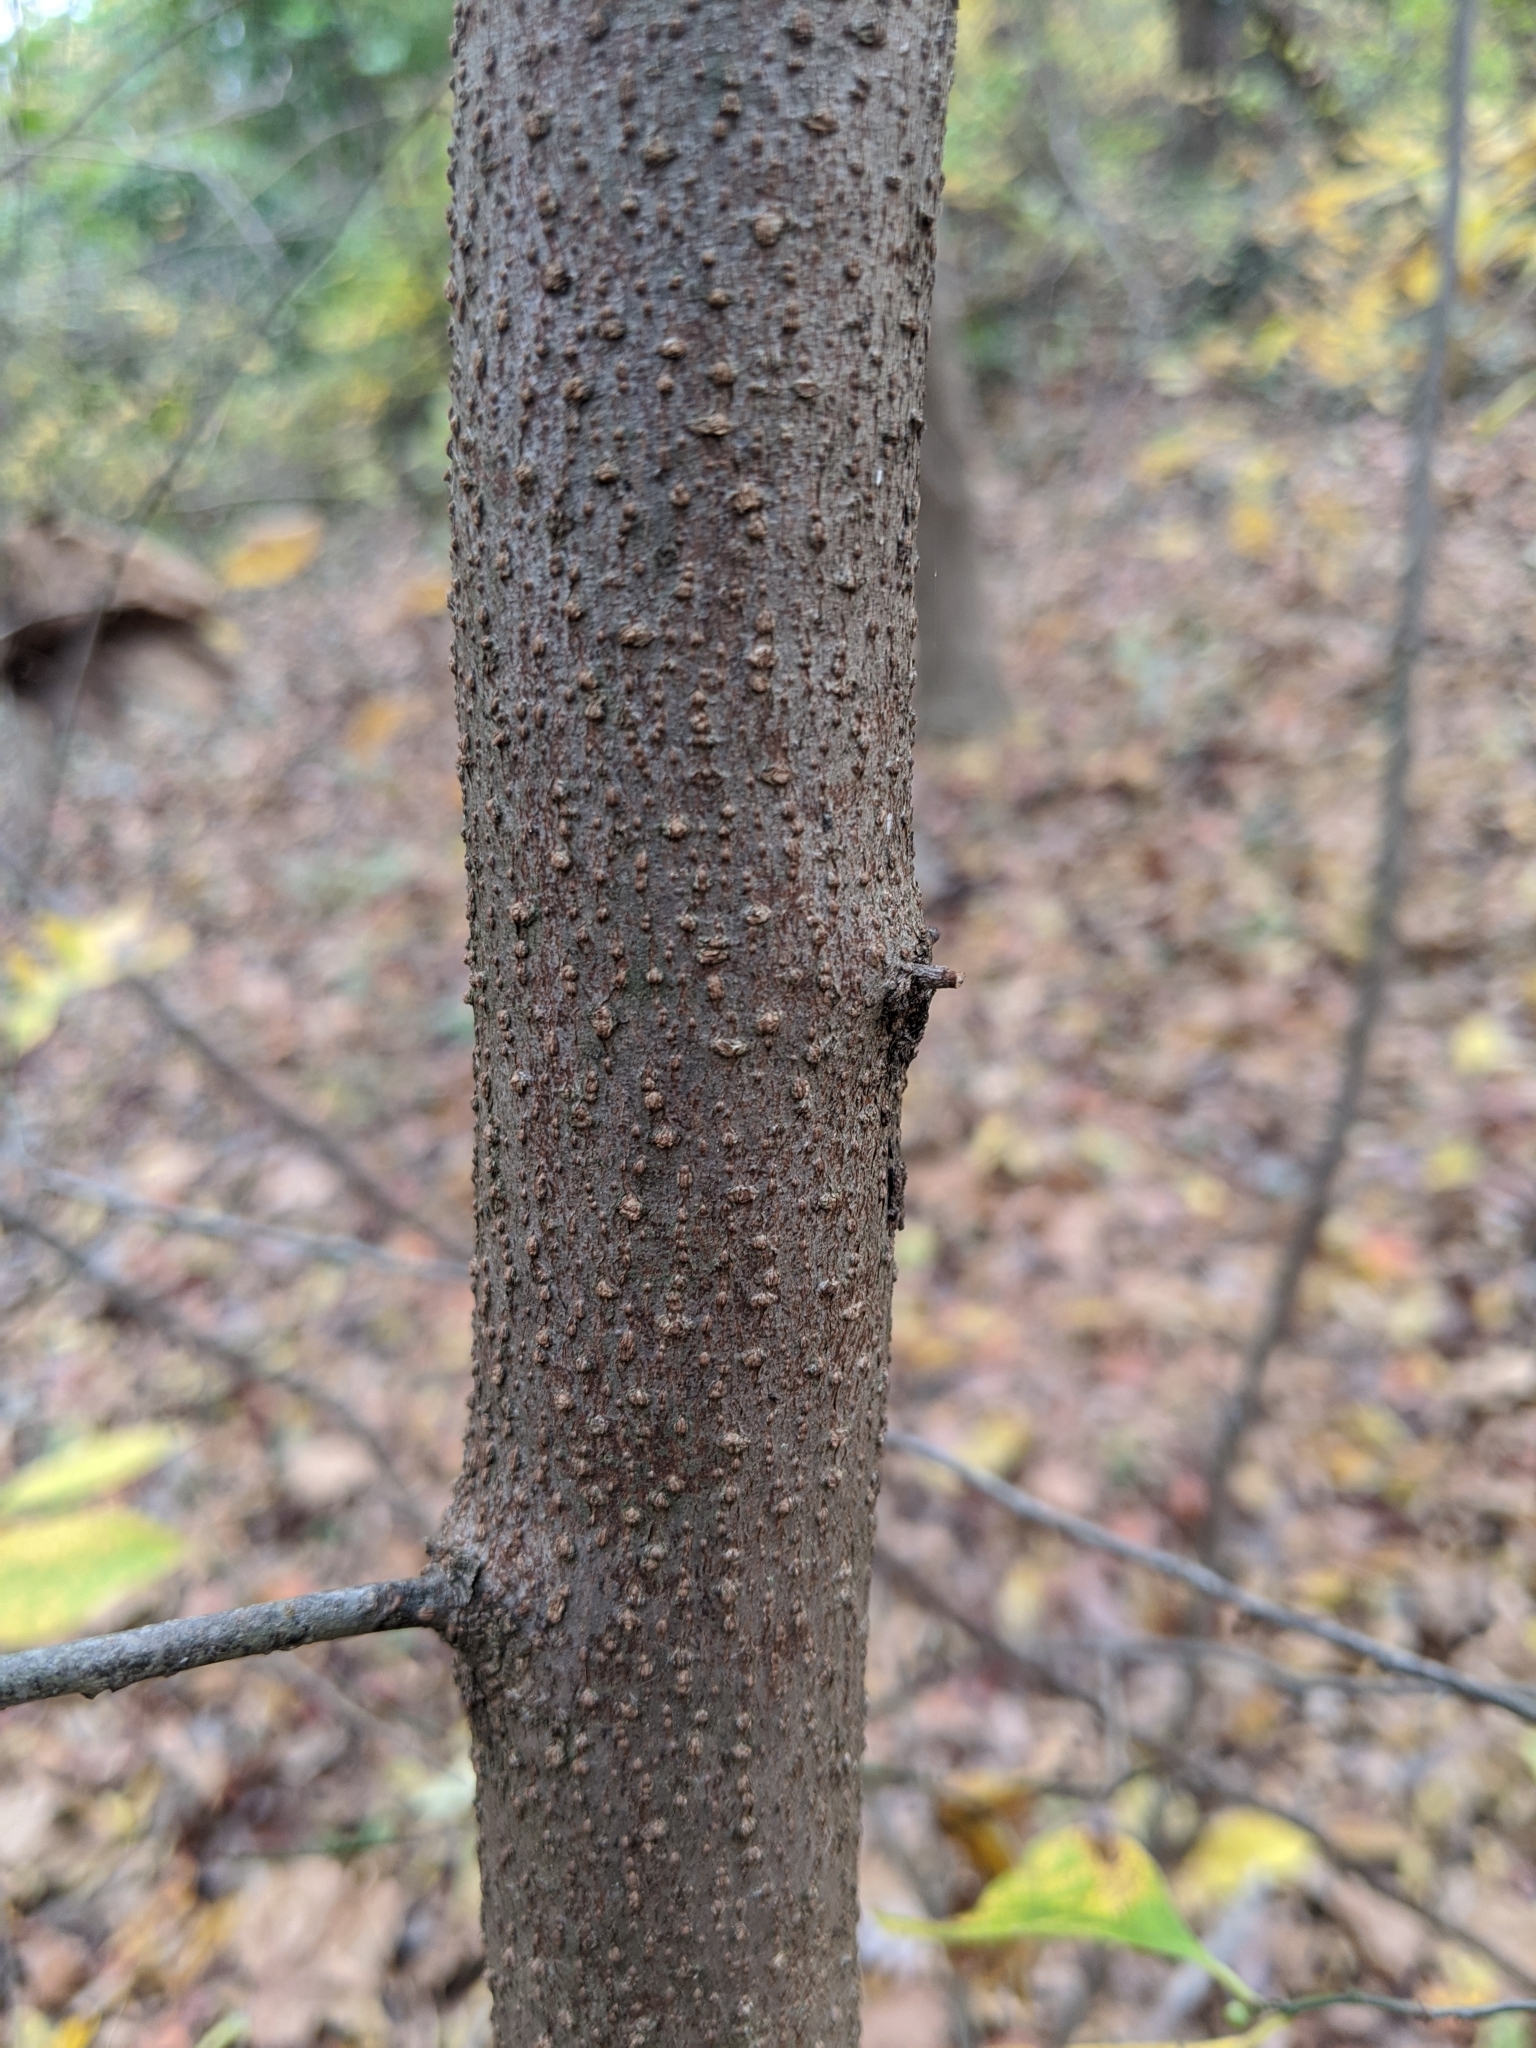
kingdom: Plantae
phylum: Tracheophyta
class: Magnoliopsida
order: Laurales
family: Lauraceae
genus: Lindera
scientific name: Lindera benzoin
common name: Spicebush
